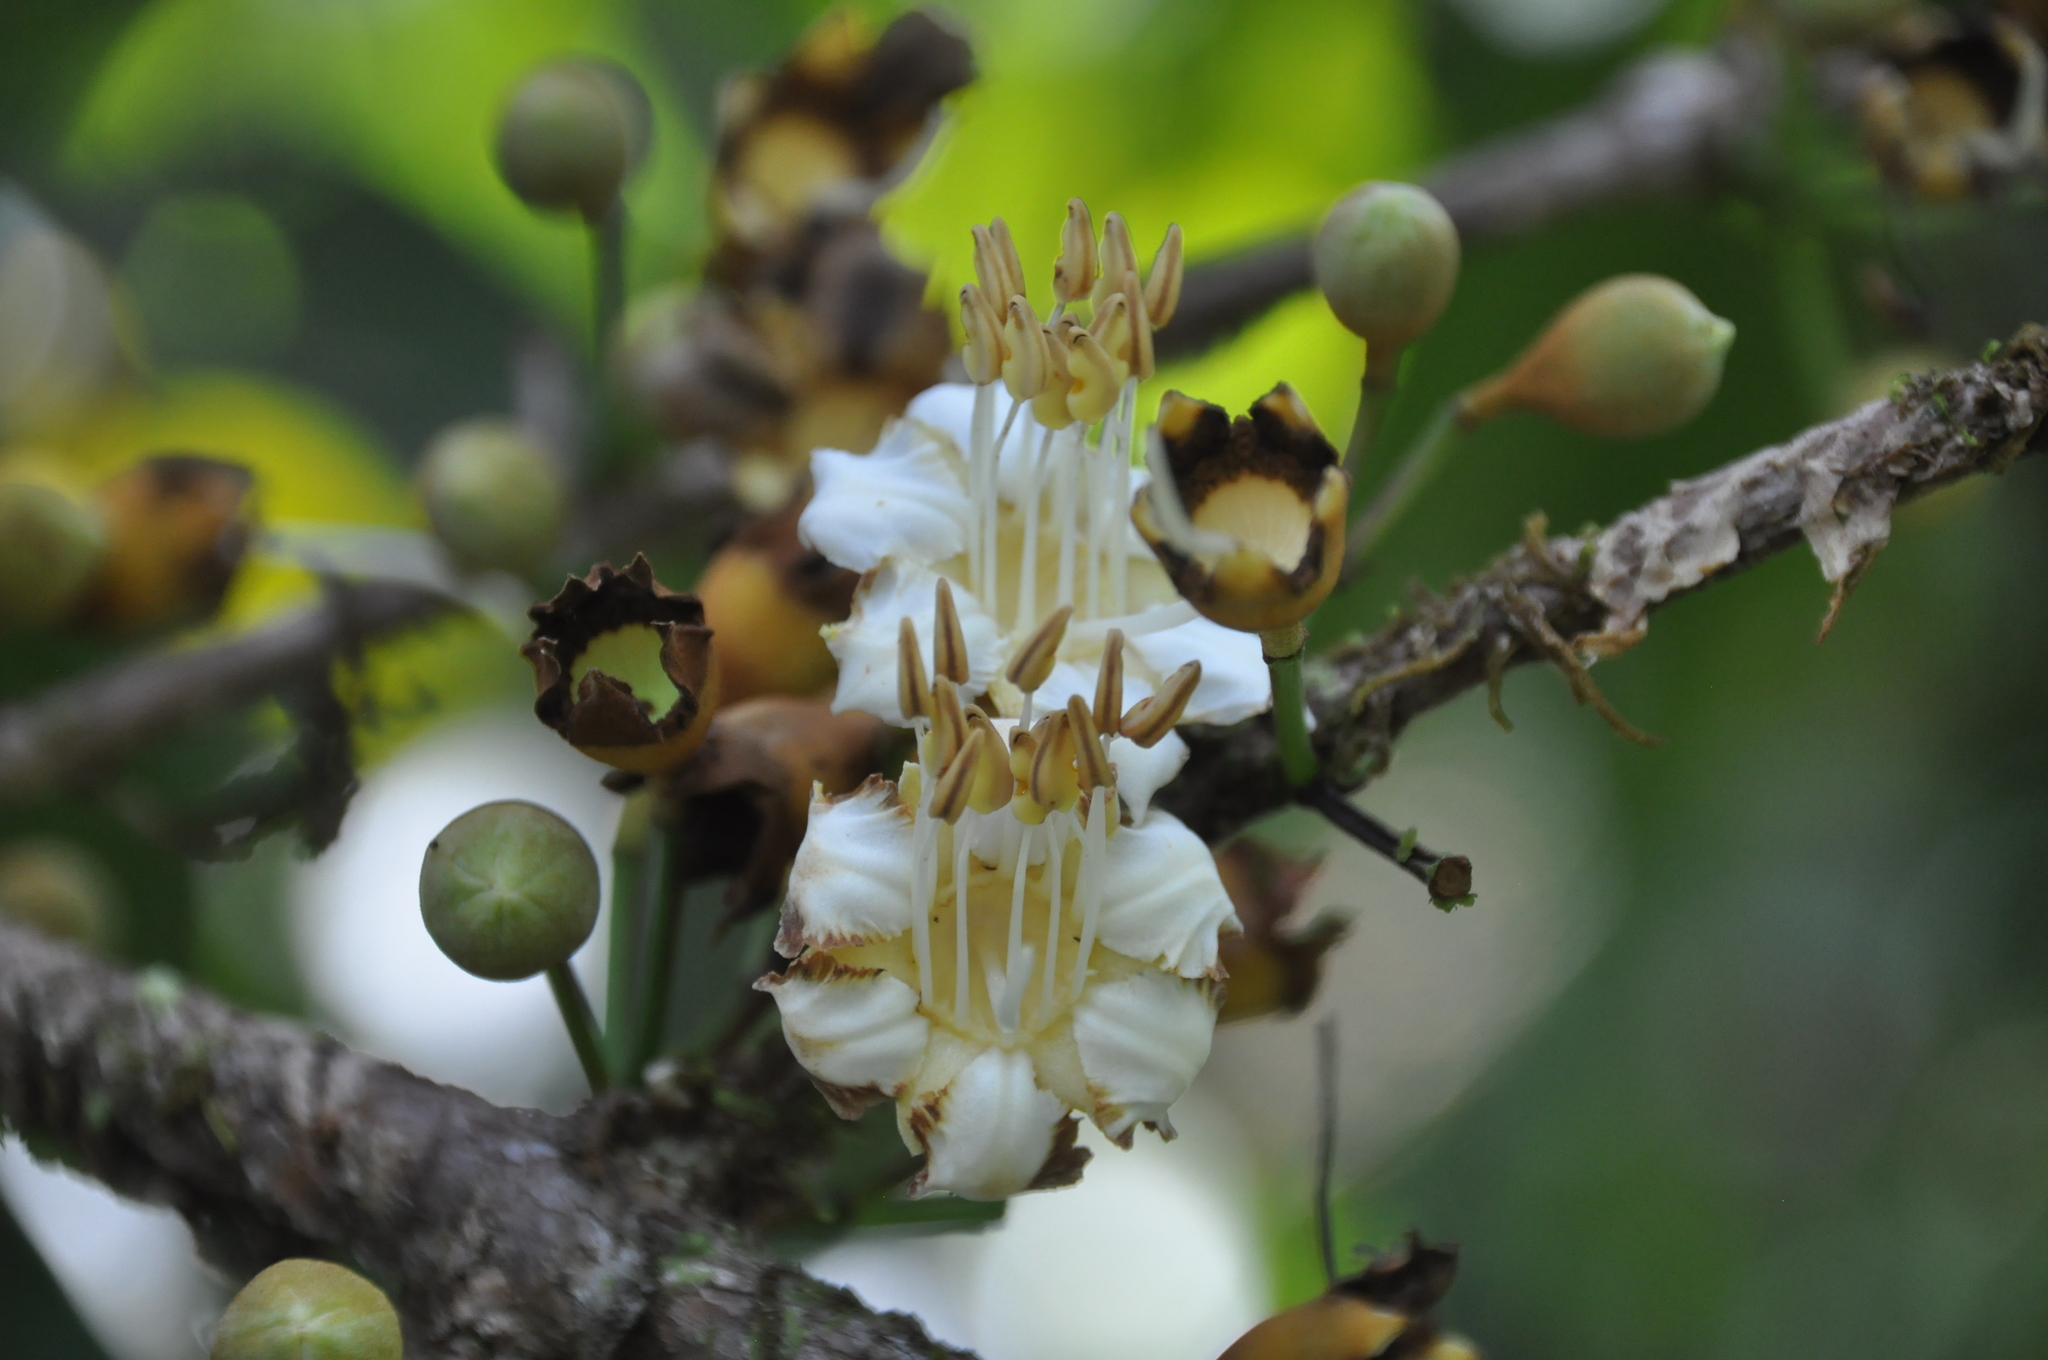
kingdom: Plantae
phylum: Tracheophyta
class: Magnoliopsida
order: Myrtales
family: Melastomataceae
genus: Mouriri
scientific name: Mouriri cyphocarpa
